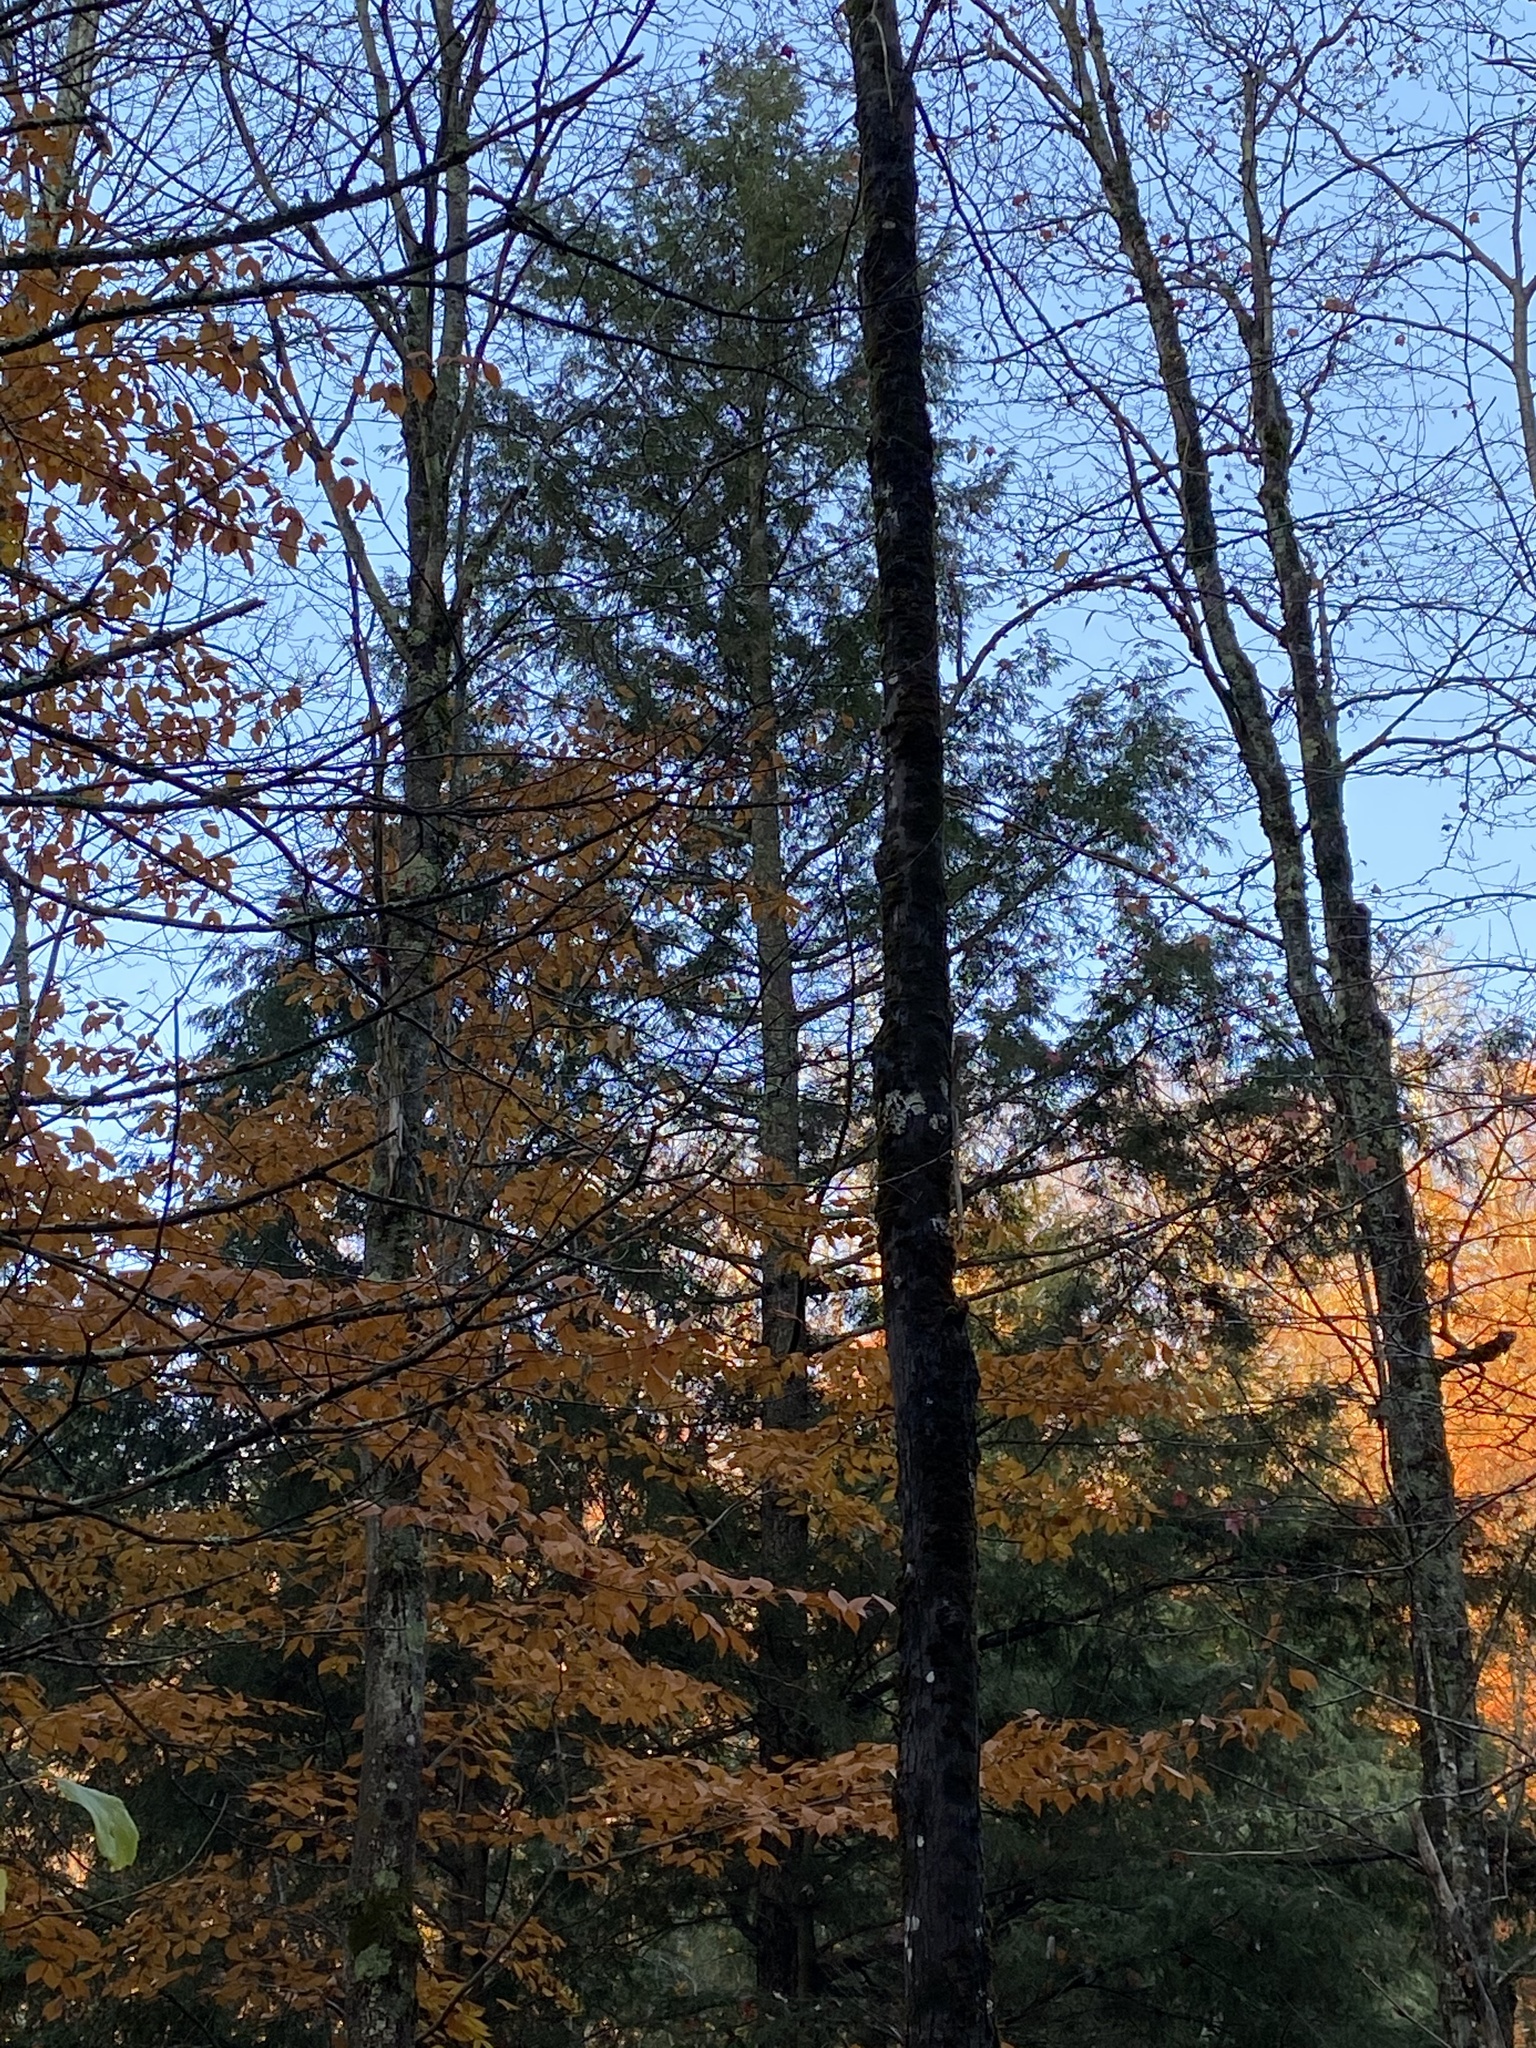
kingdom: Plantae
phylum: Tracheophyta
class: Pinopsida
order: Pinales
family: Pinaceae
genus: Pinus
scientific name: Pinus strobus
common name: Weymouth pine
